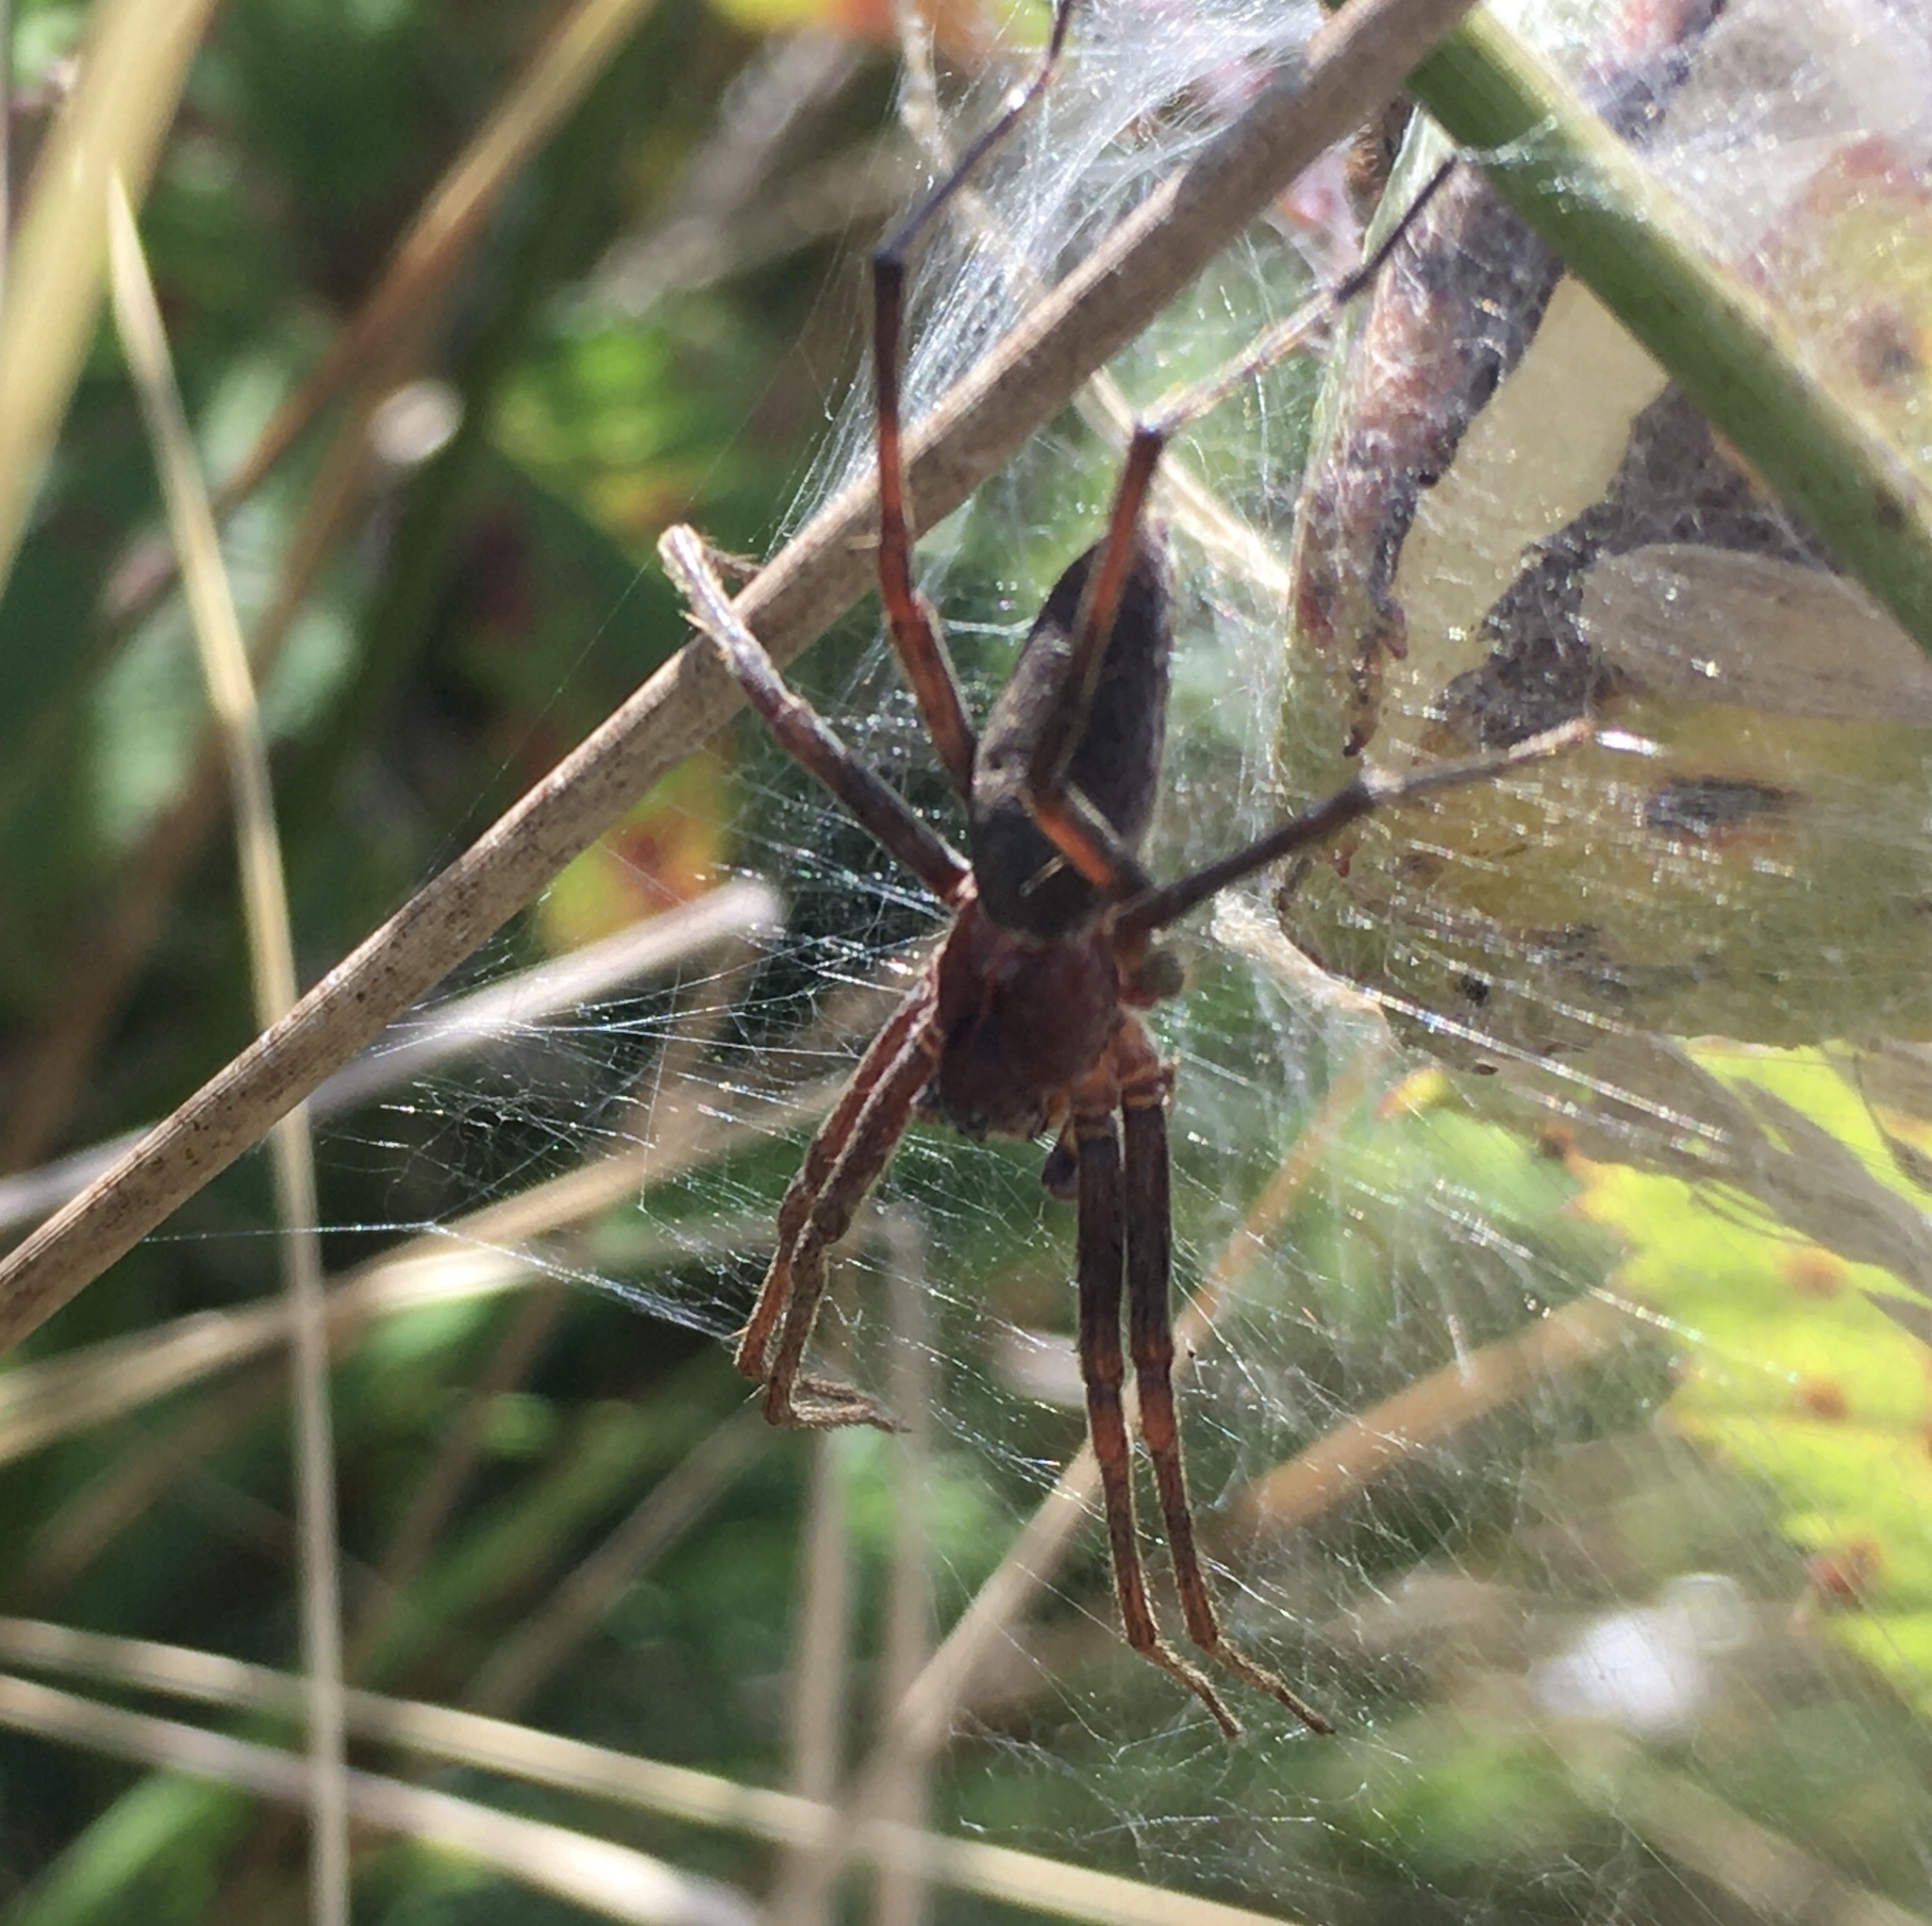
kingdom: Animalia
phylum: Arthropoda
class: Arachnida
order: Araneae
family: Pisauridae
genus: Pisaura
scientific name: Pisaura mirabilis
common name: Tent spider
